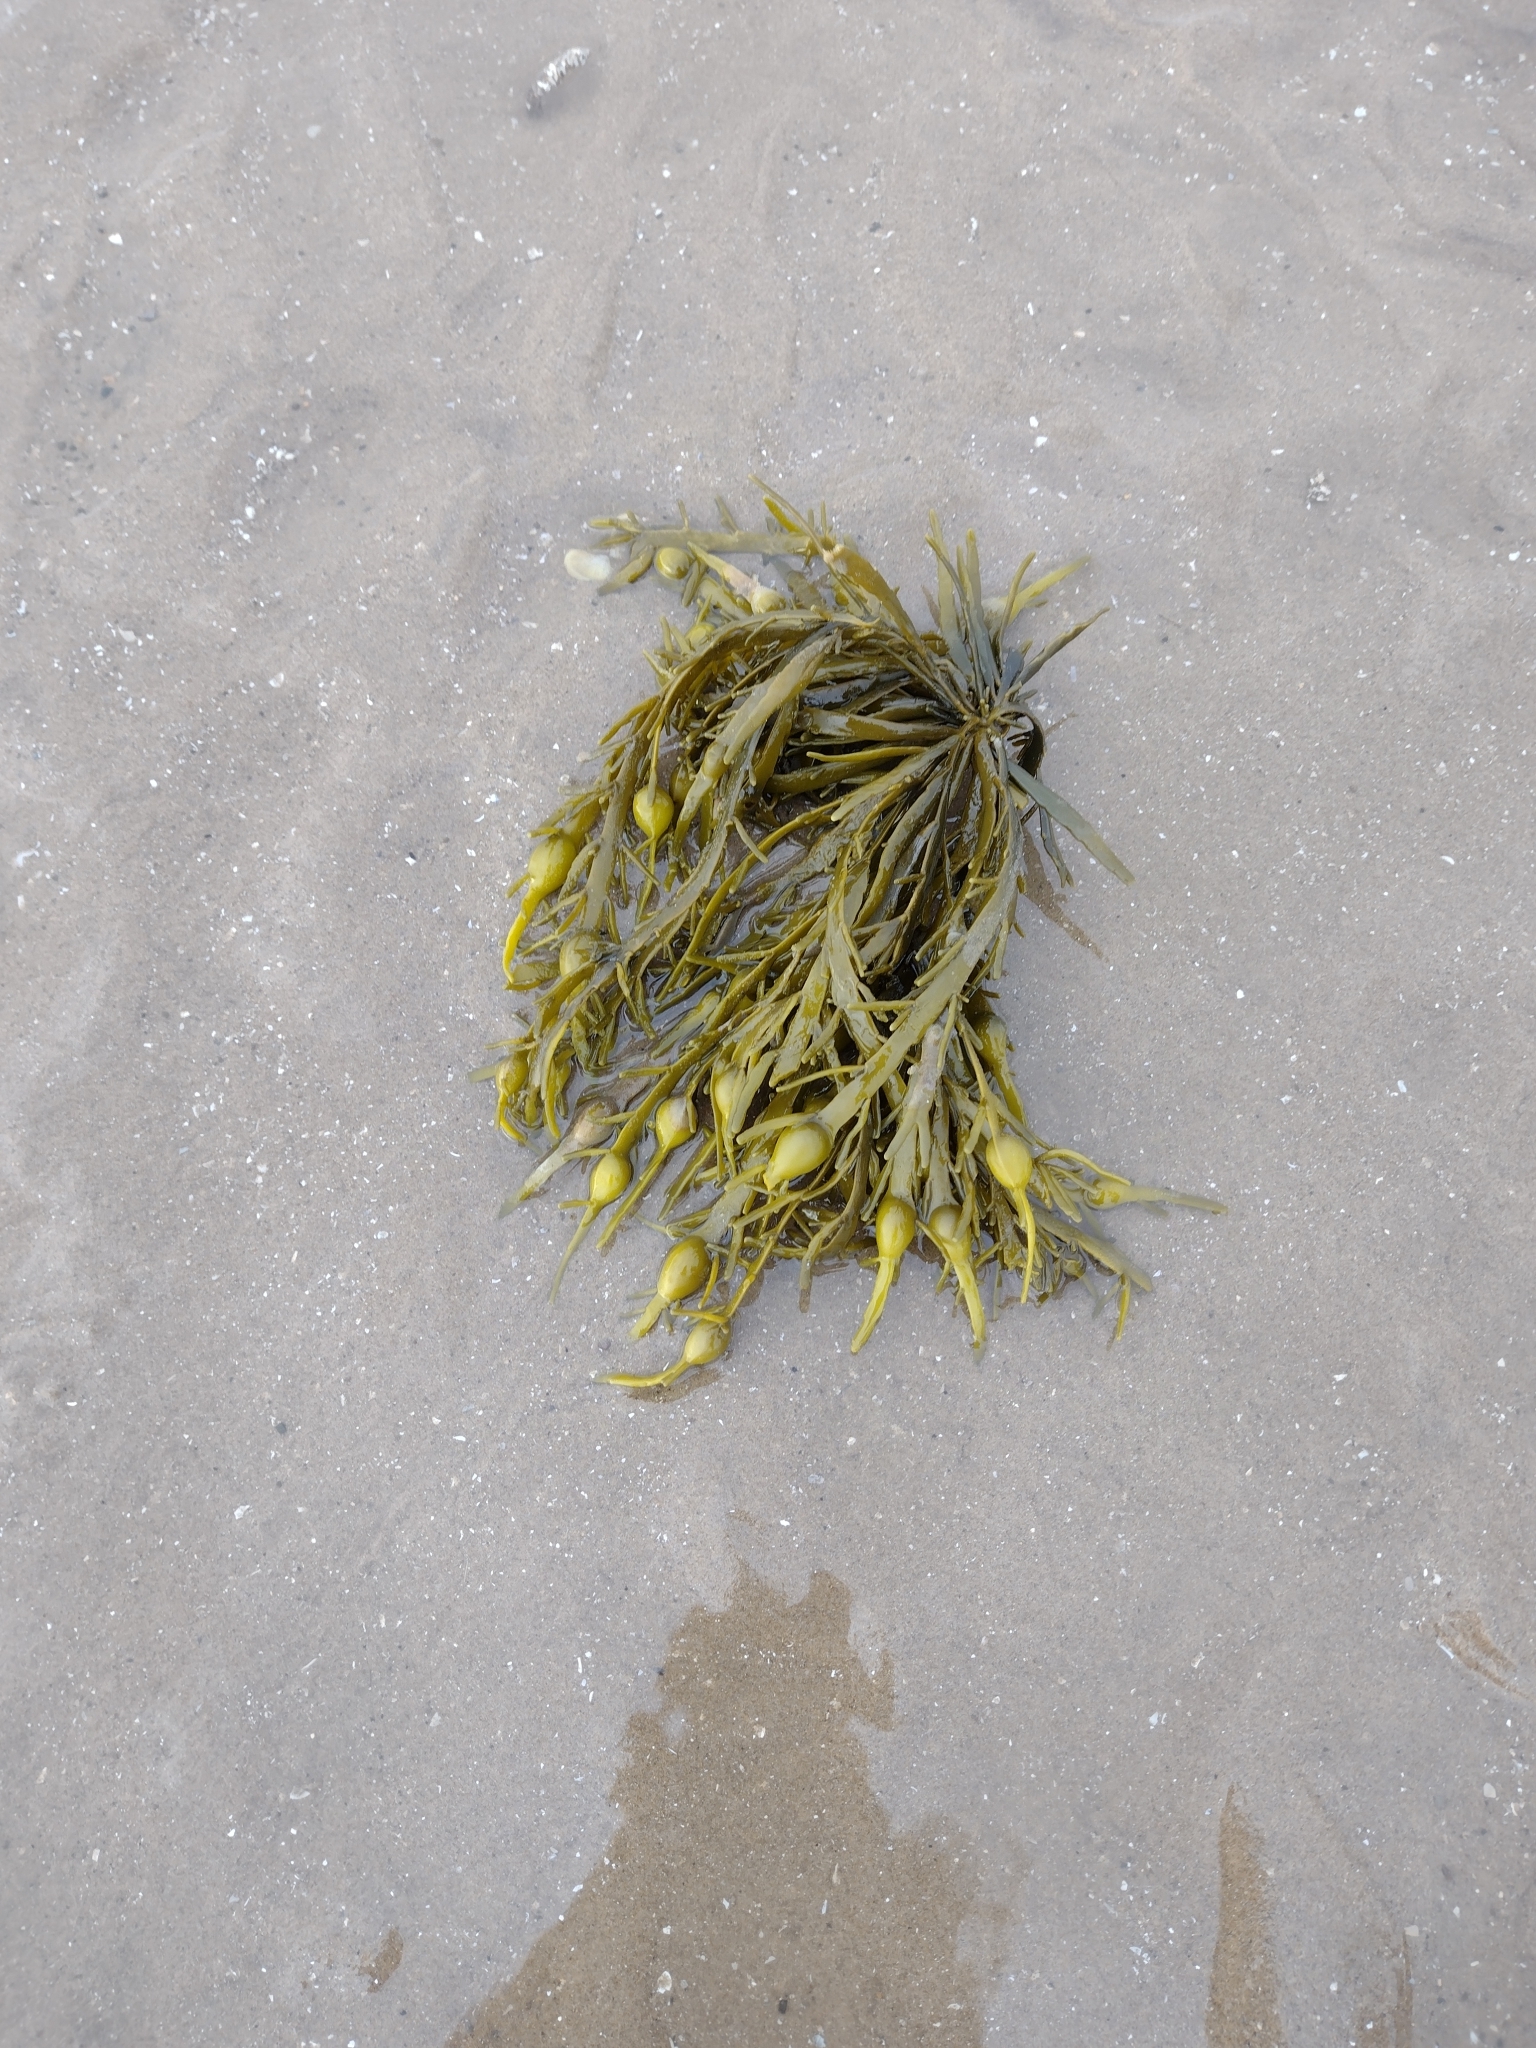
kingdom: Chromista
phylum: Ochrophyta
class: Phaeophyceae
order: Fucales
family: Fucaceae
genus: Ascophyllum
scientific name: Ascophyllum nodosum
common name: Knotted wrack
